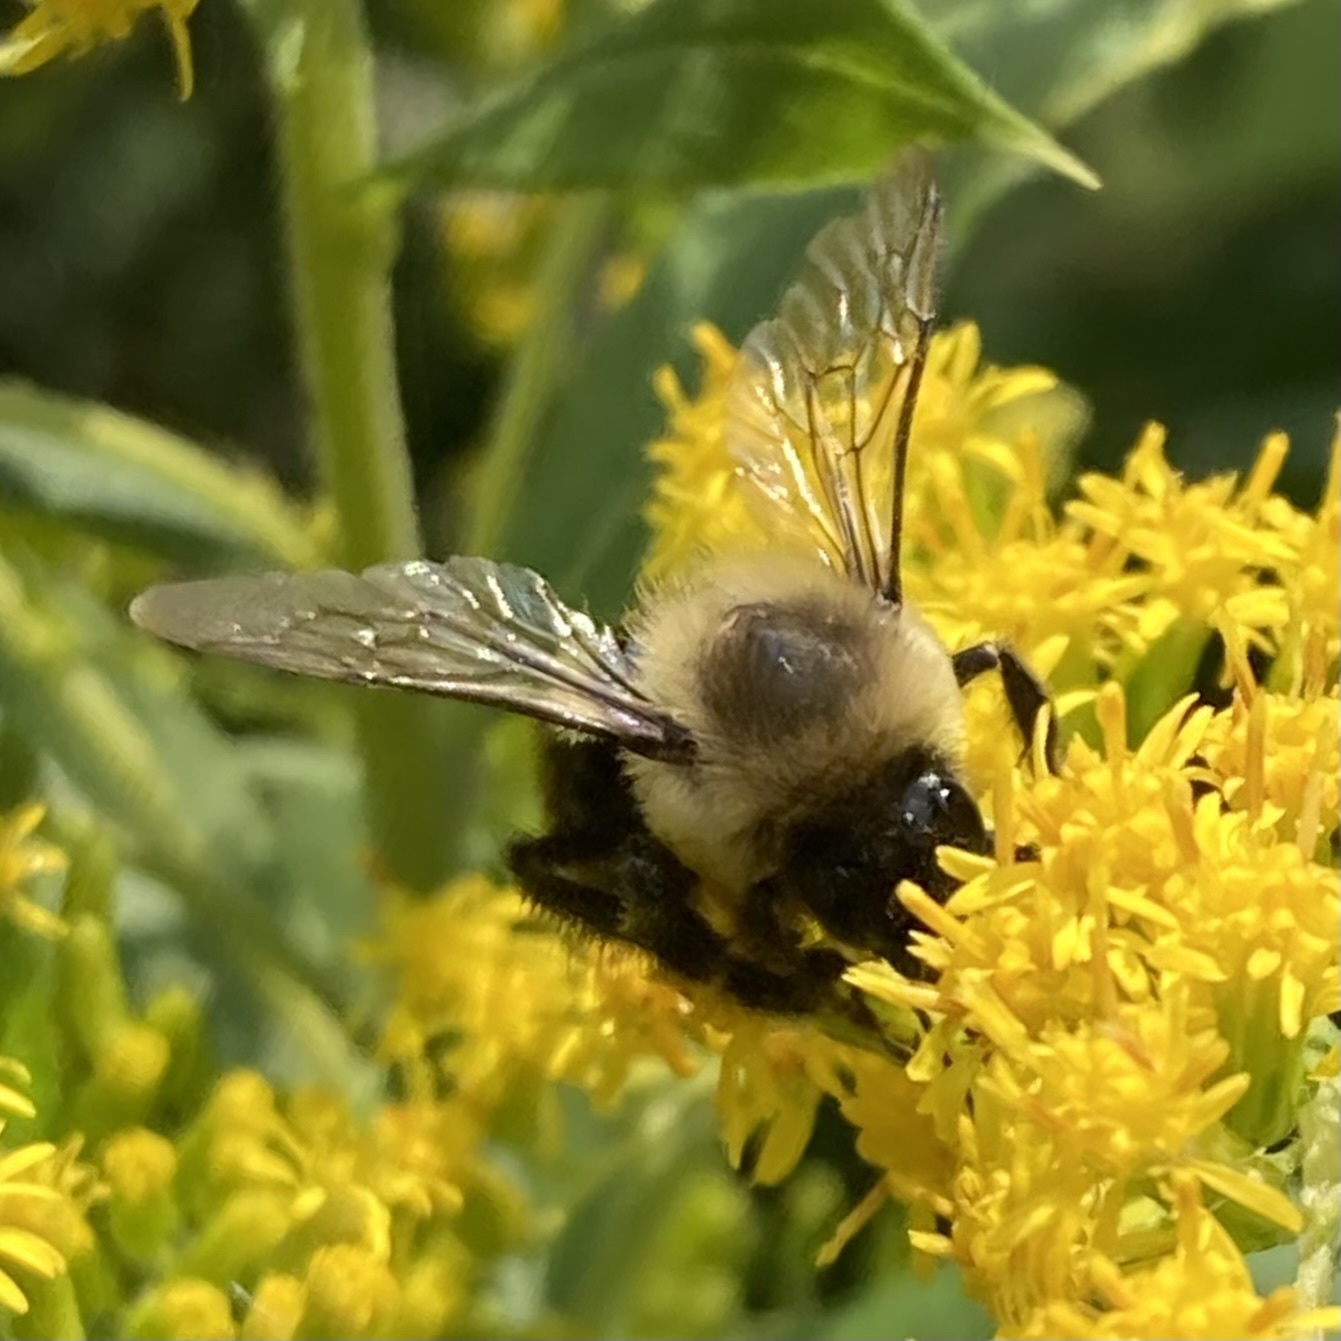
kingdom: Animalia
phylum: Arthropoda
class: Insecta
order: Hymenoptera
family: Apidae
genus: Bombus
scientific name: Bombus impatiens
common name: Common eastern bumble bee
